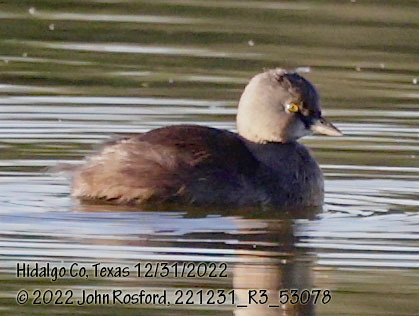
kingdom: Animalia
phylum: Chordata
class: Aves
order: Podicipediformes
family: Podicipedidae
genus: Tachybaptus
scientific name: Tachybaptus dominicus
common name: Least grebe
